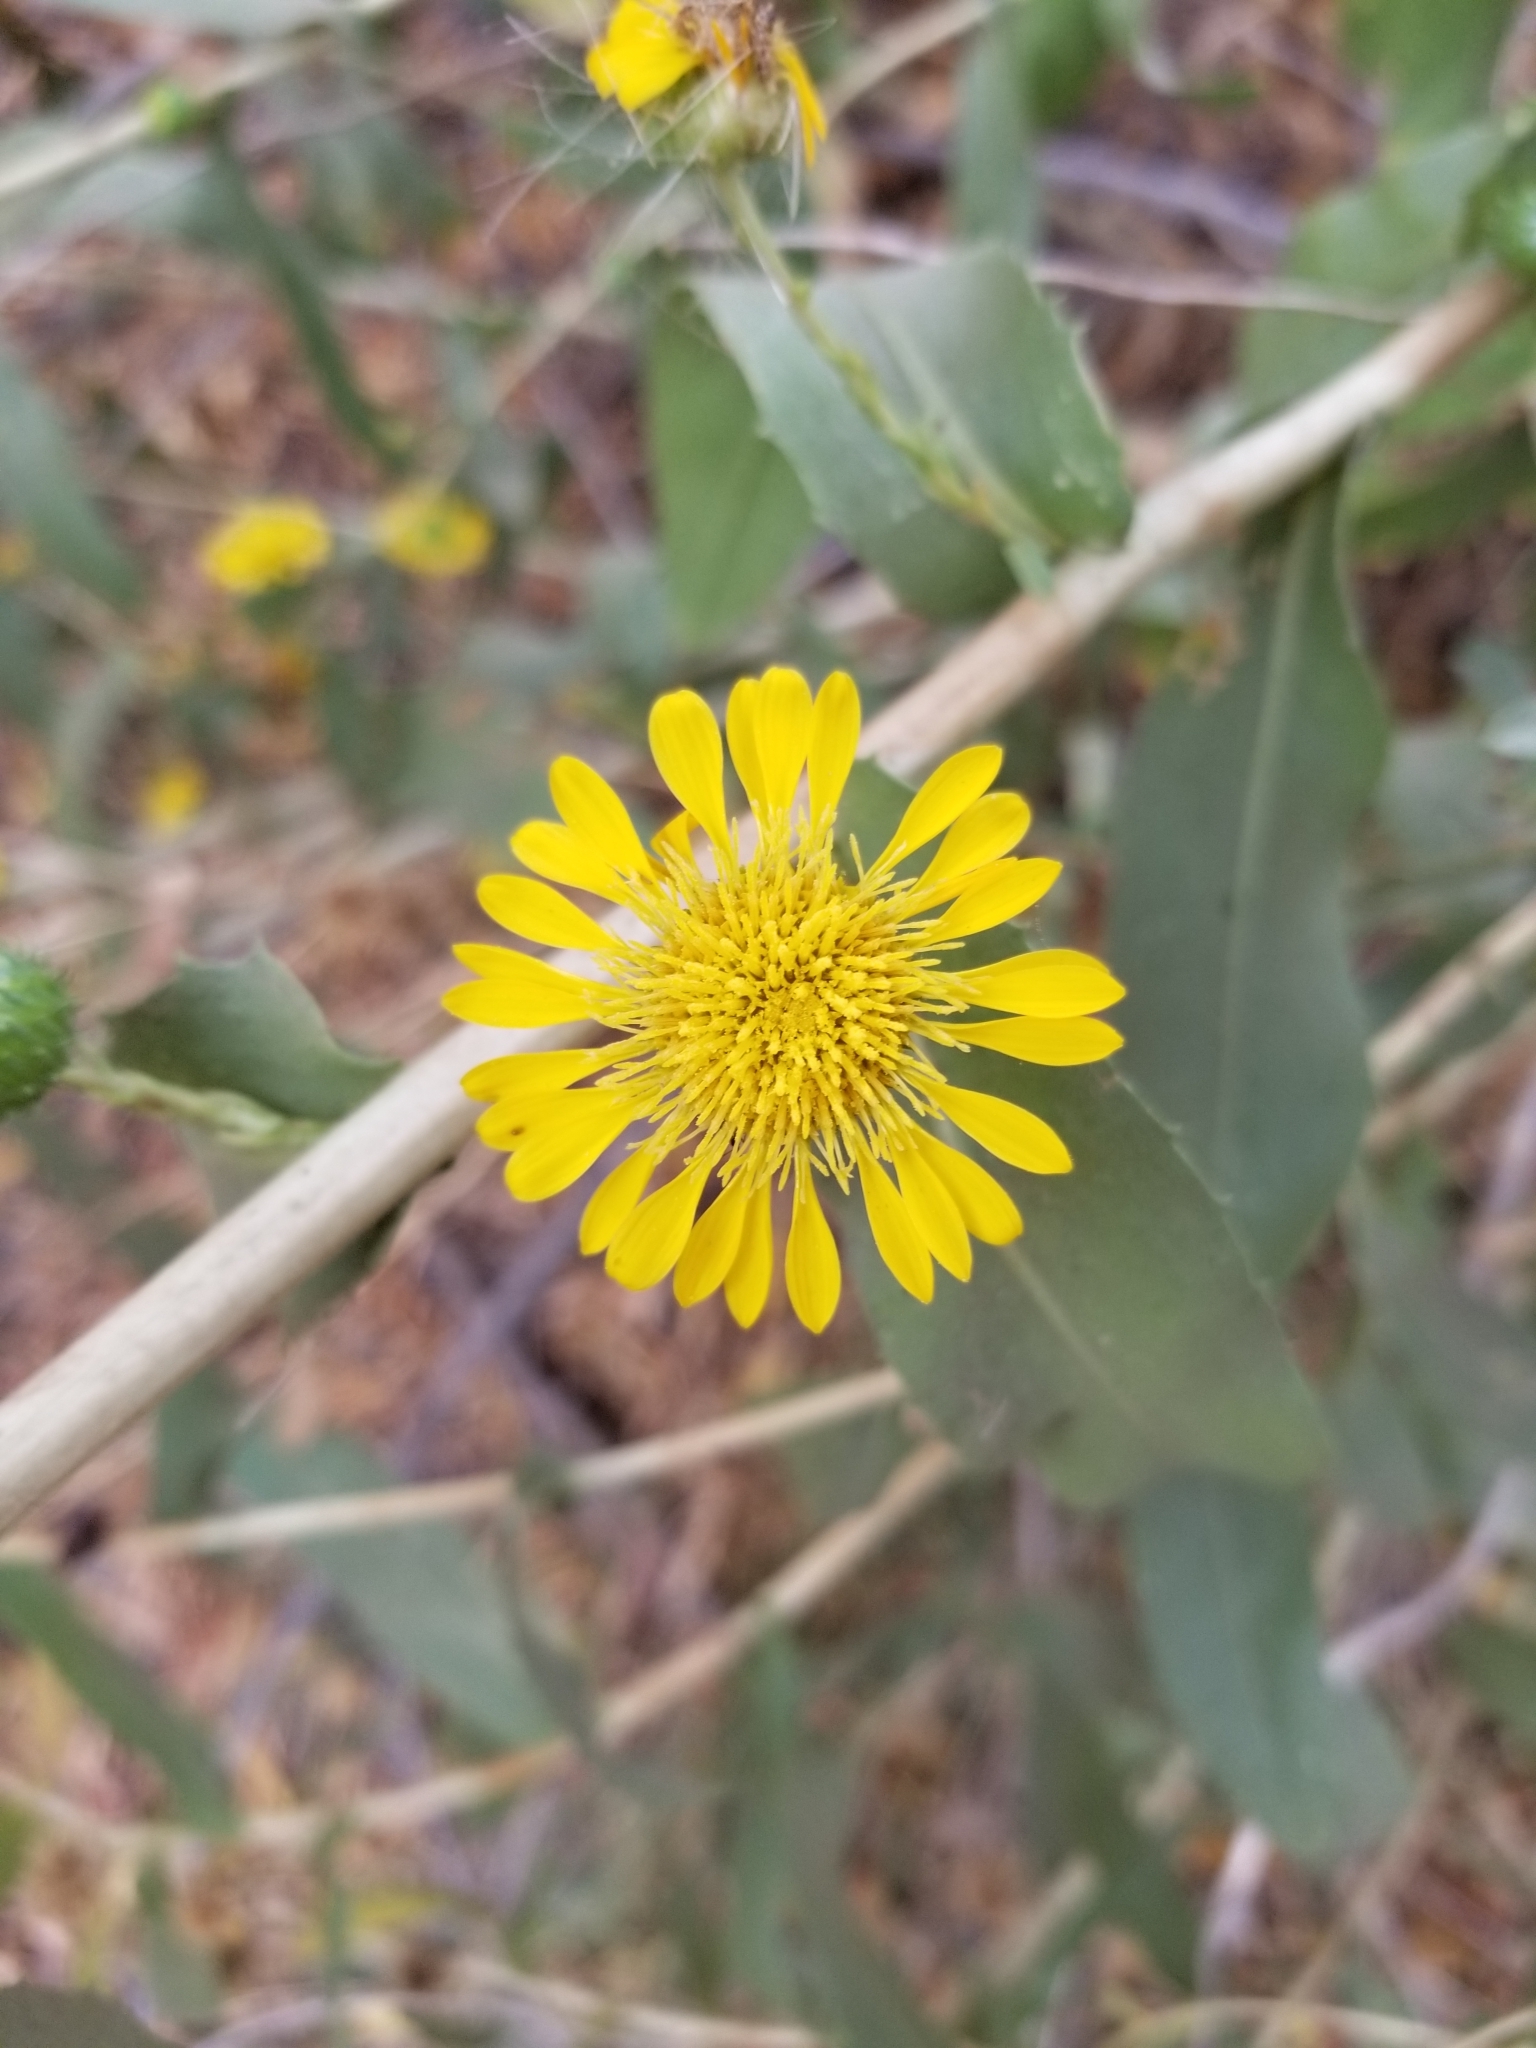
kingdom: Plantae
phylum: Tracheophyta
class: Magnoliopsida
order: Asterales
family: Asteraceae
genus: Grindelia
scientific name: Grindelia hirsutula
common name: Hairy gumweed
